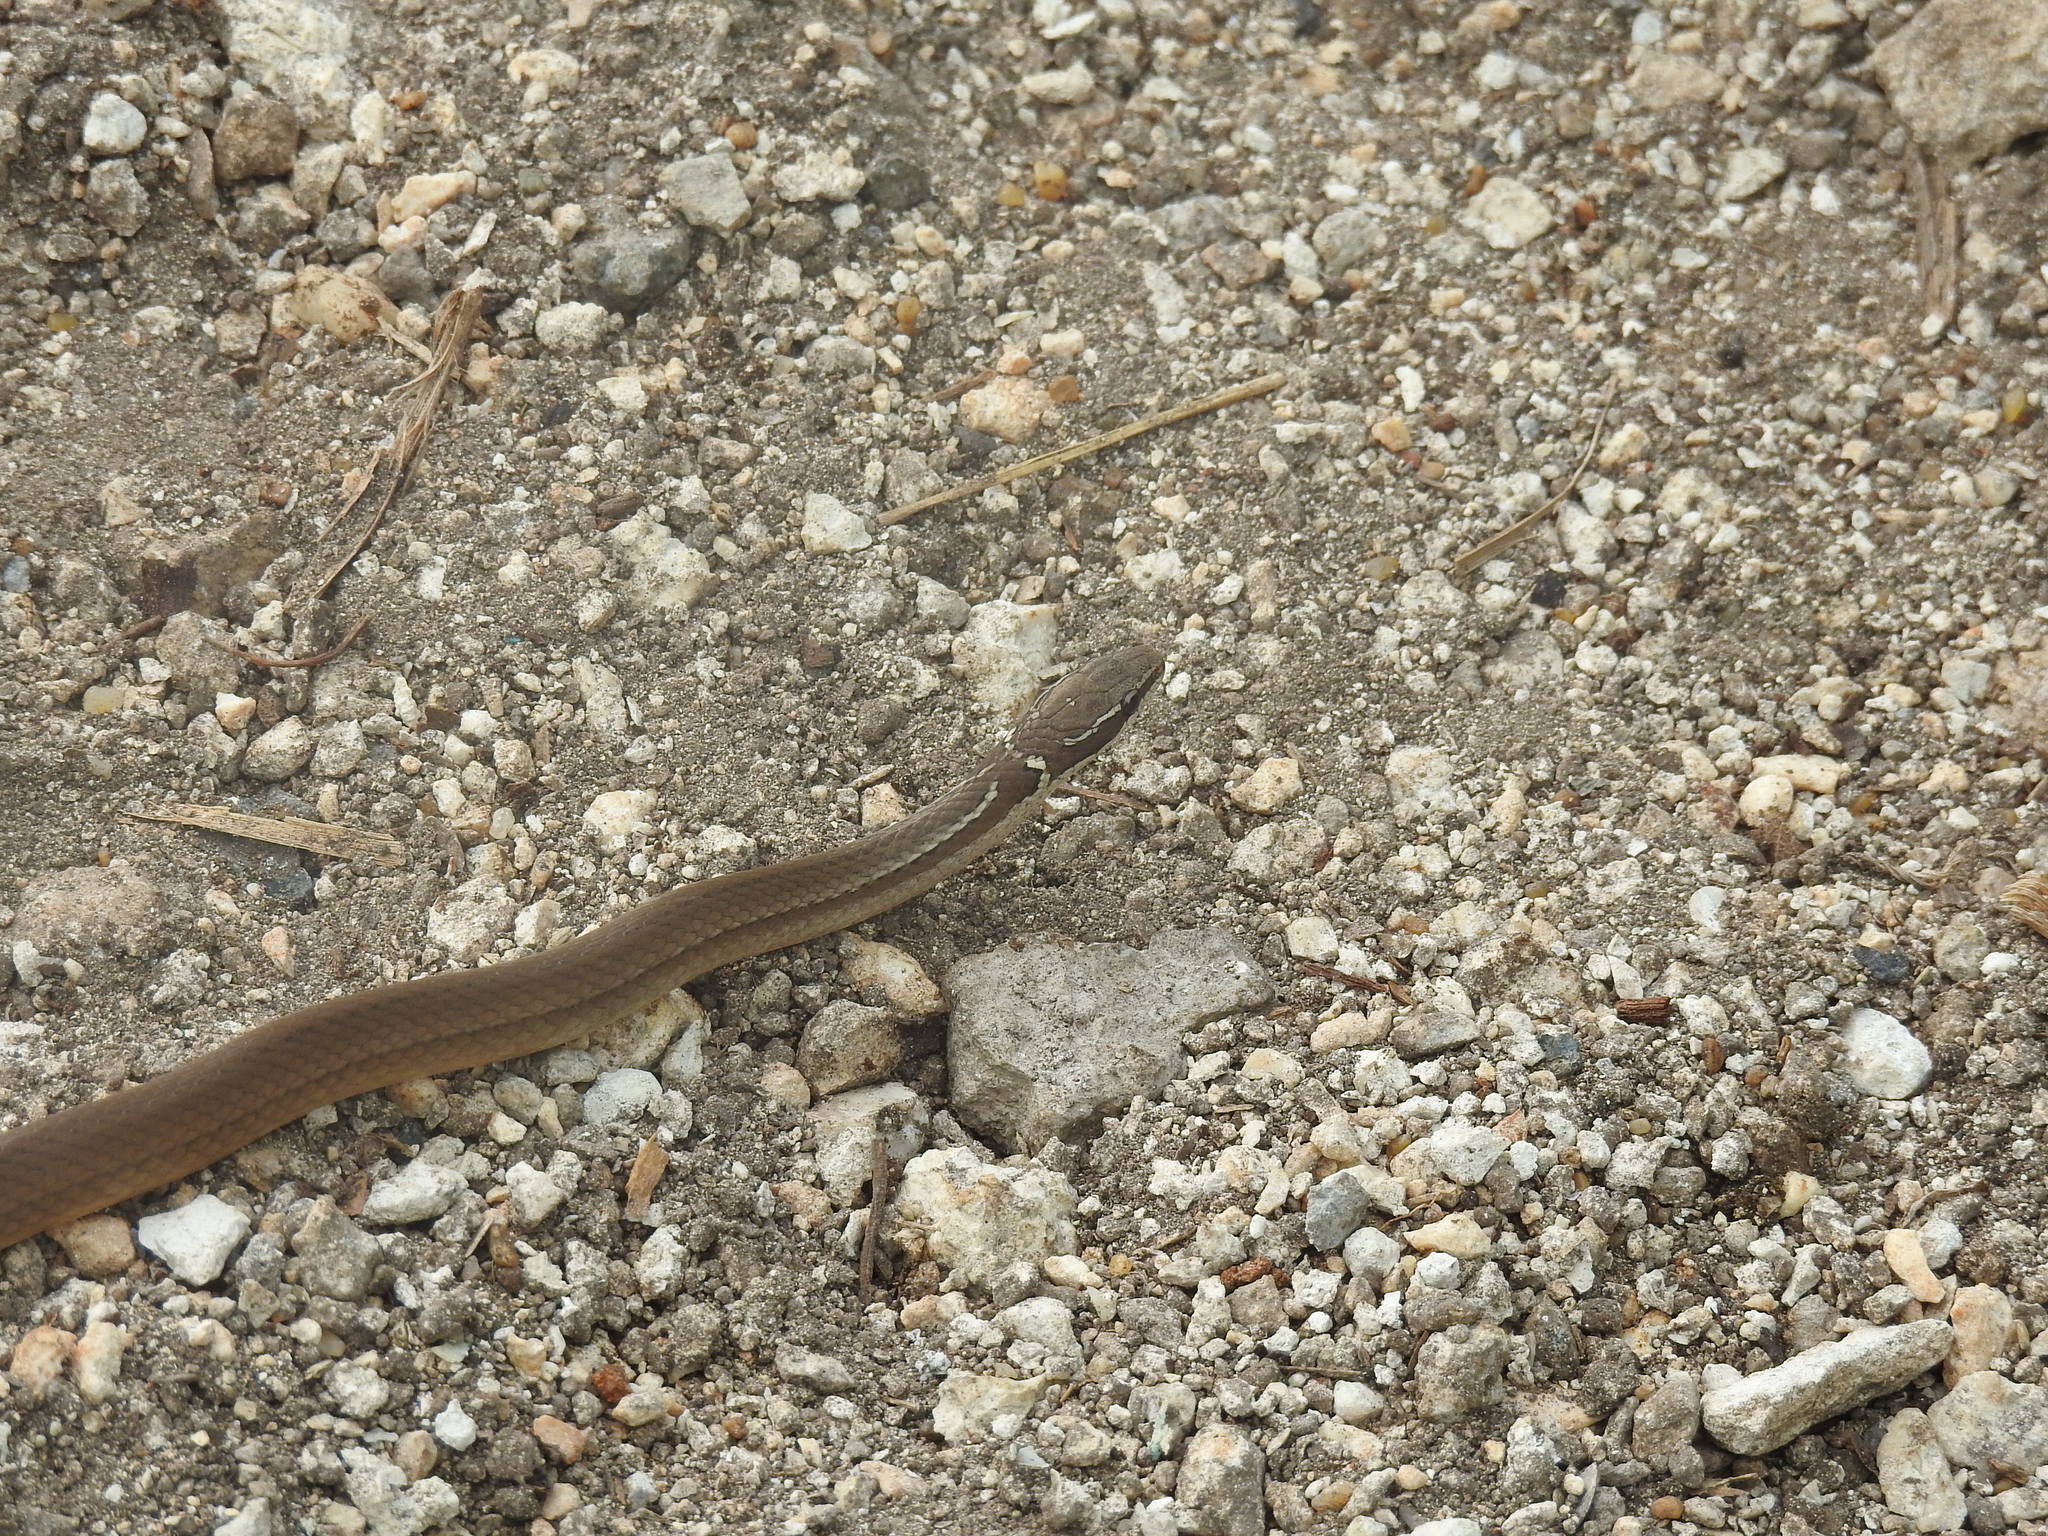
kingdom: Animalia
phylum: Chordata
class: Squamata
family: Colubridae
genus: Coniophanes
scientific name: Coniophanes imperialis
